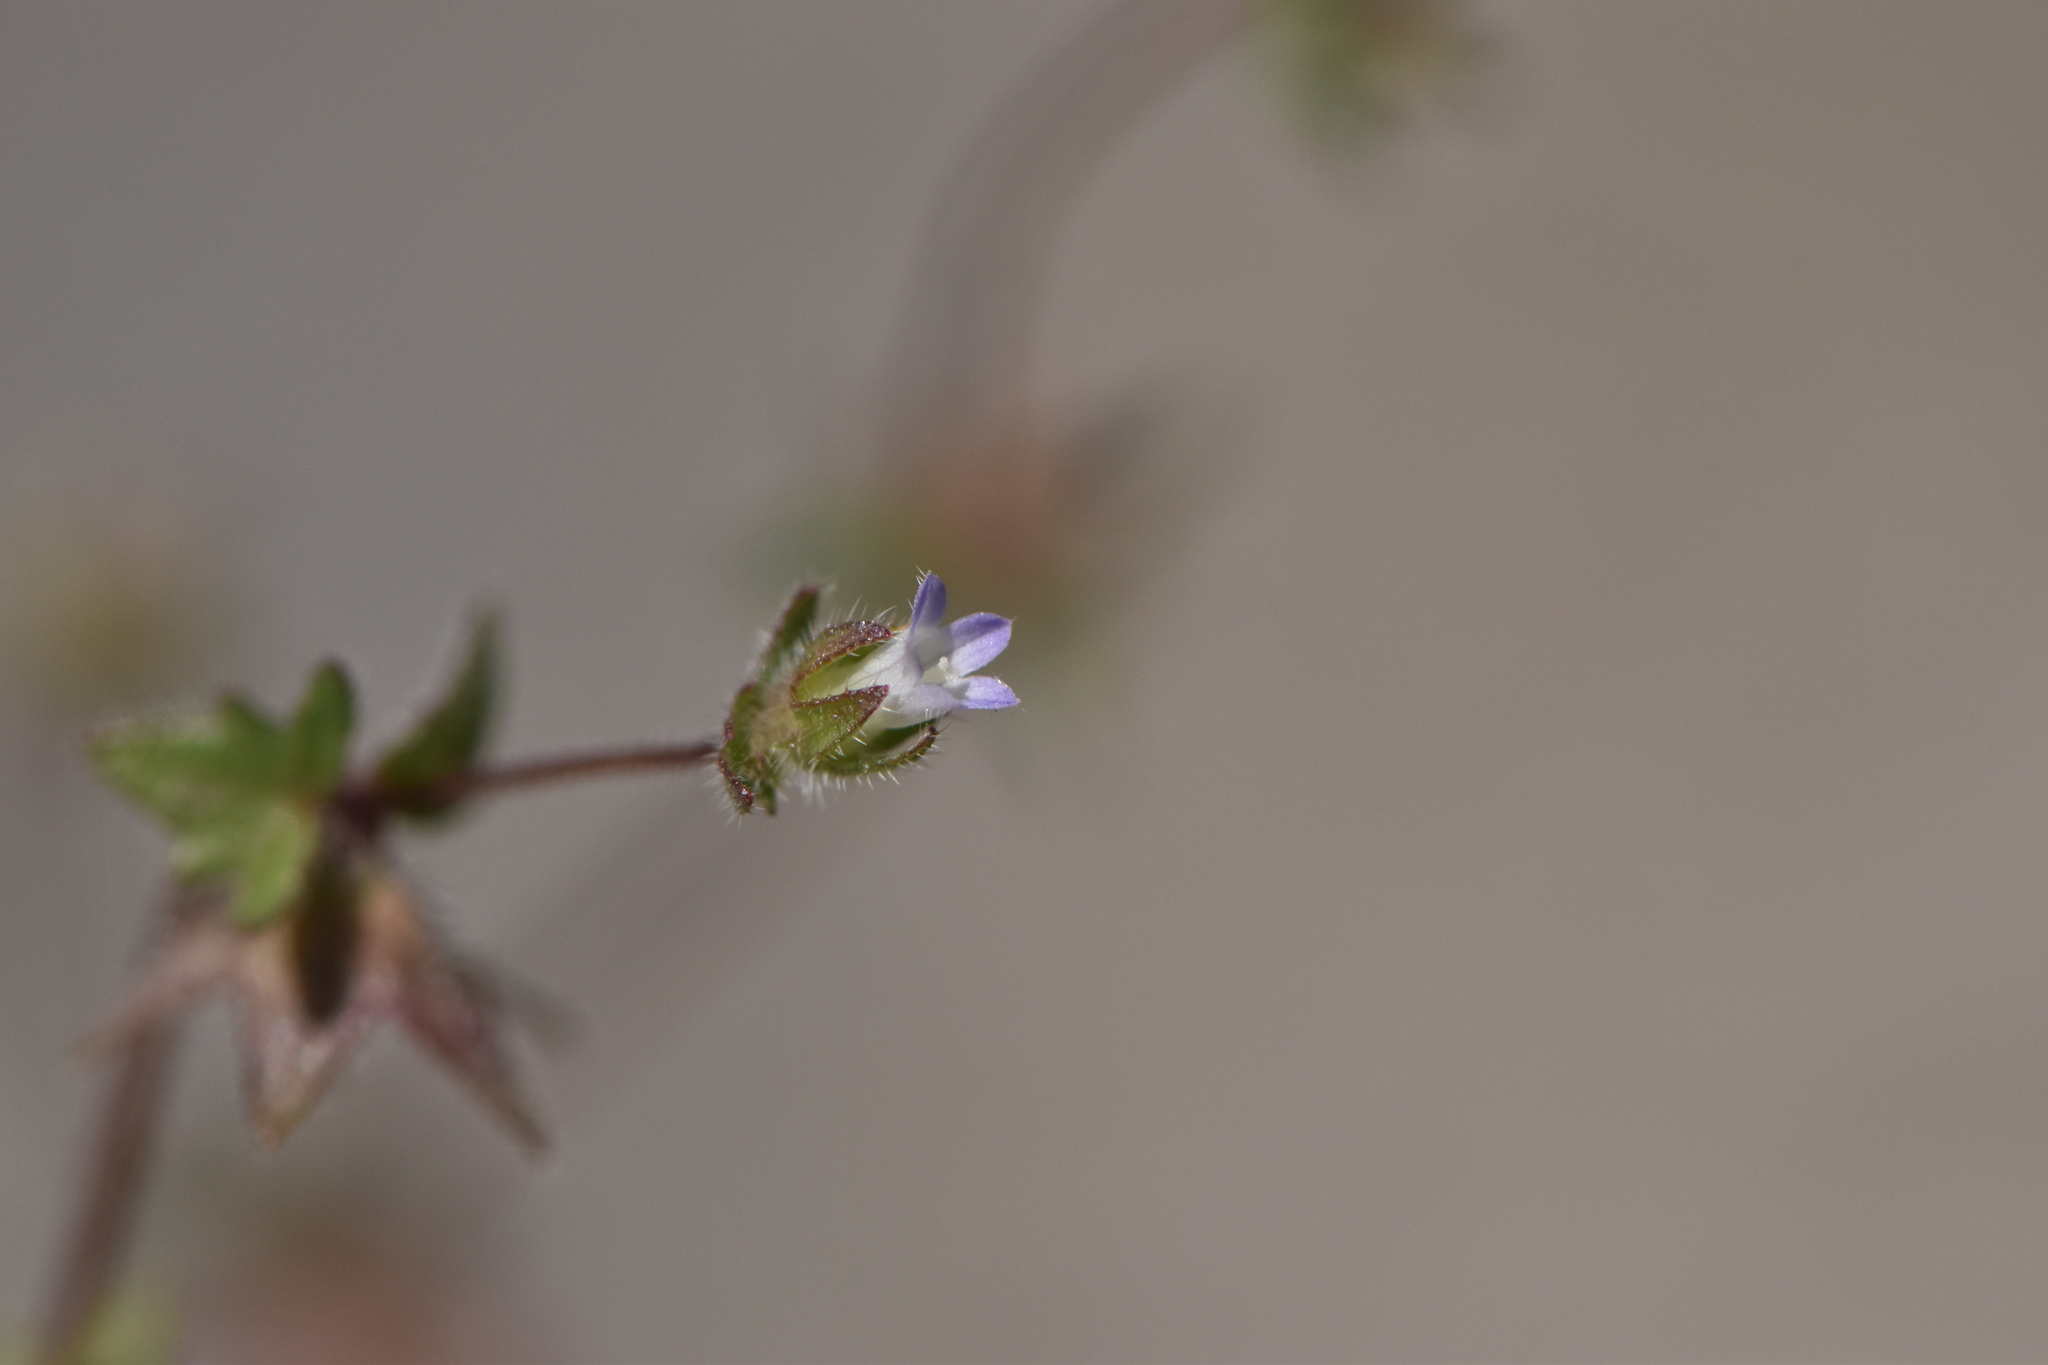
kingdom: Plantae
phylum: Tracheophyta
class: Magnoliopsida
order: Asterales
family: Campanulaceae
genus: Campanula
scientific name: Campanula erinus
